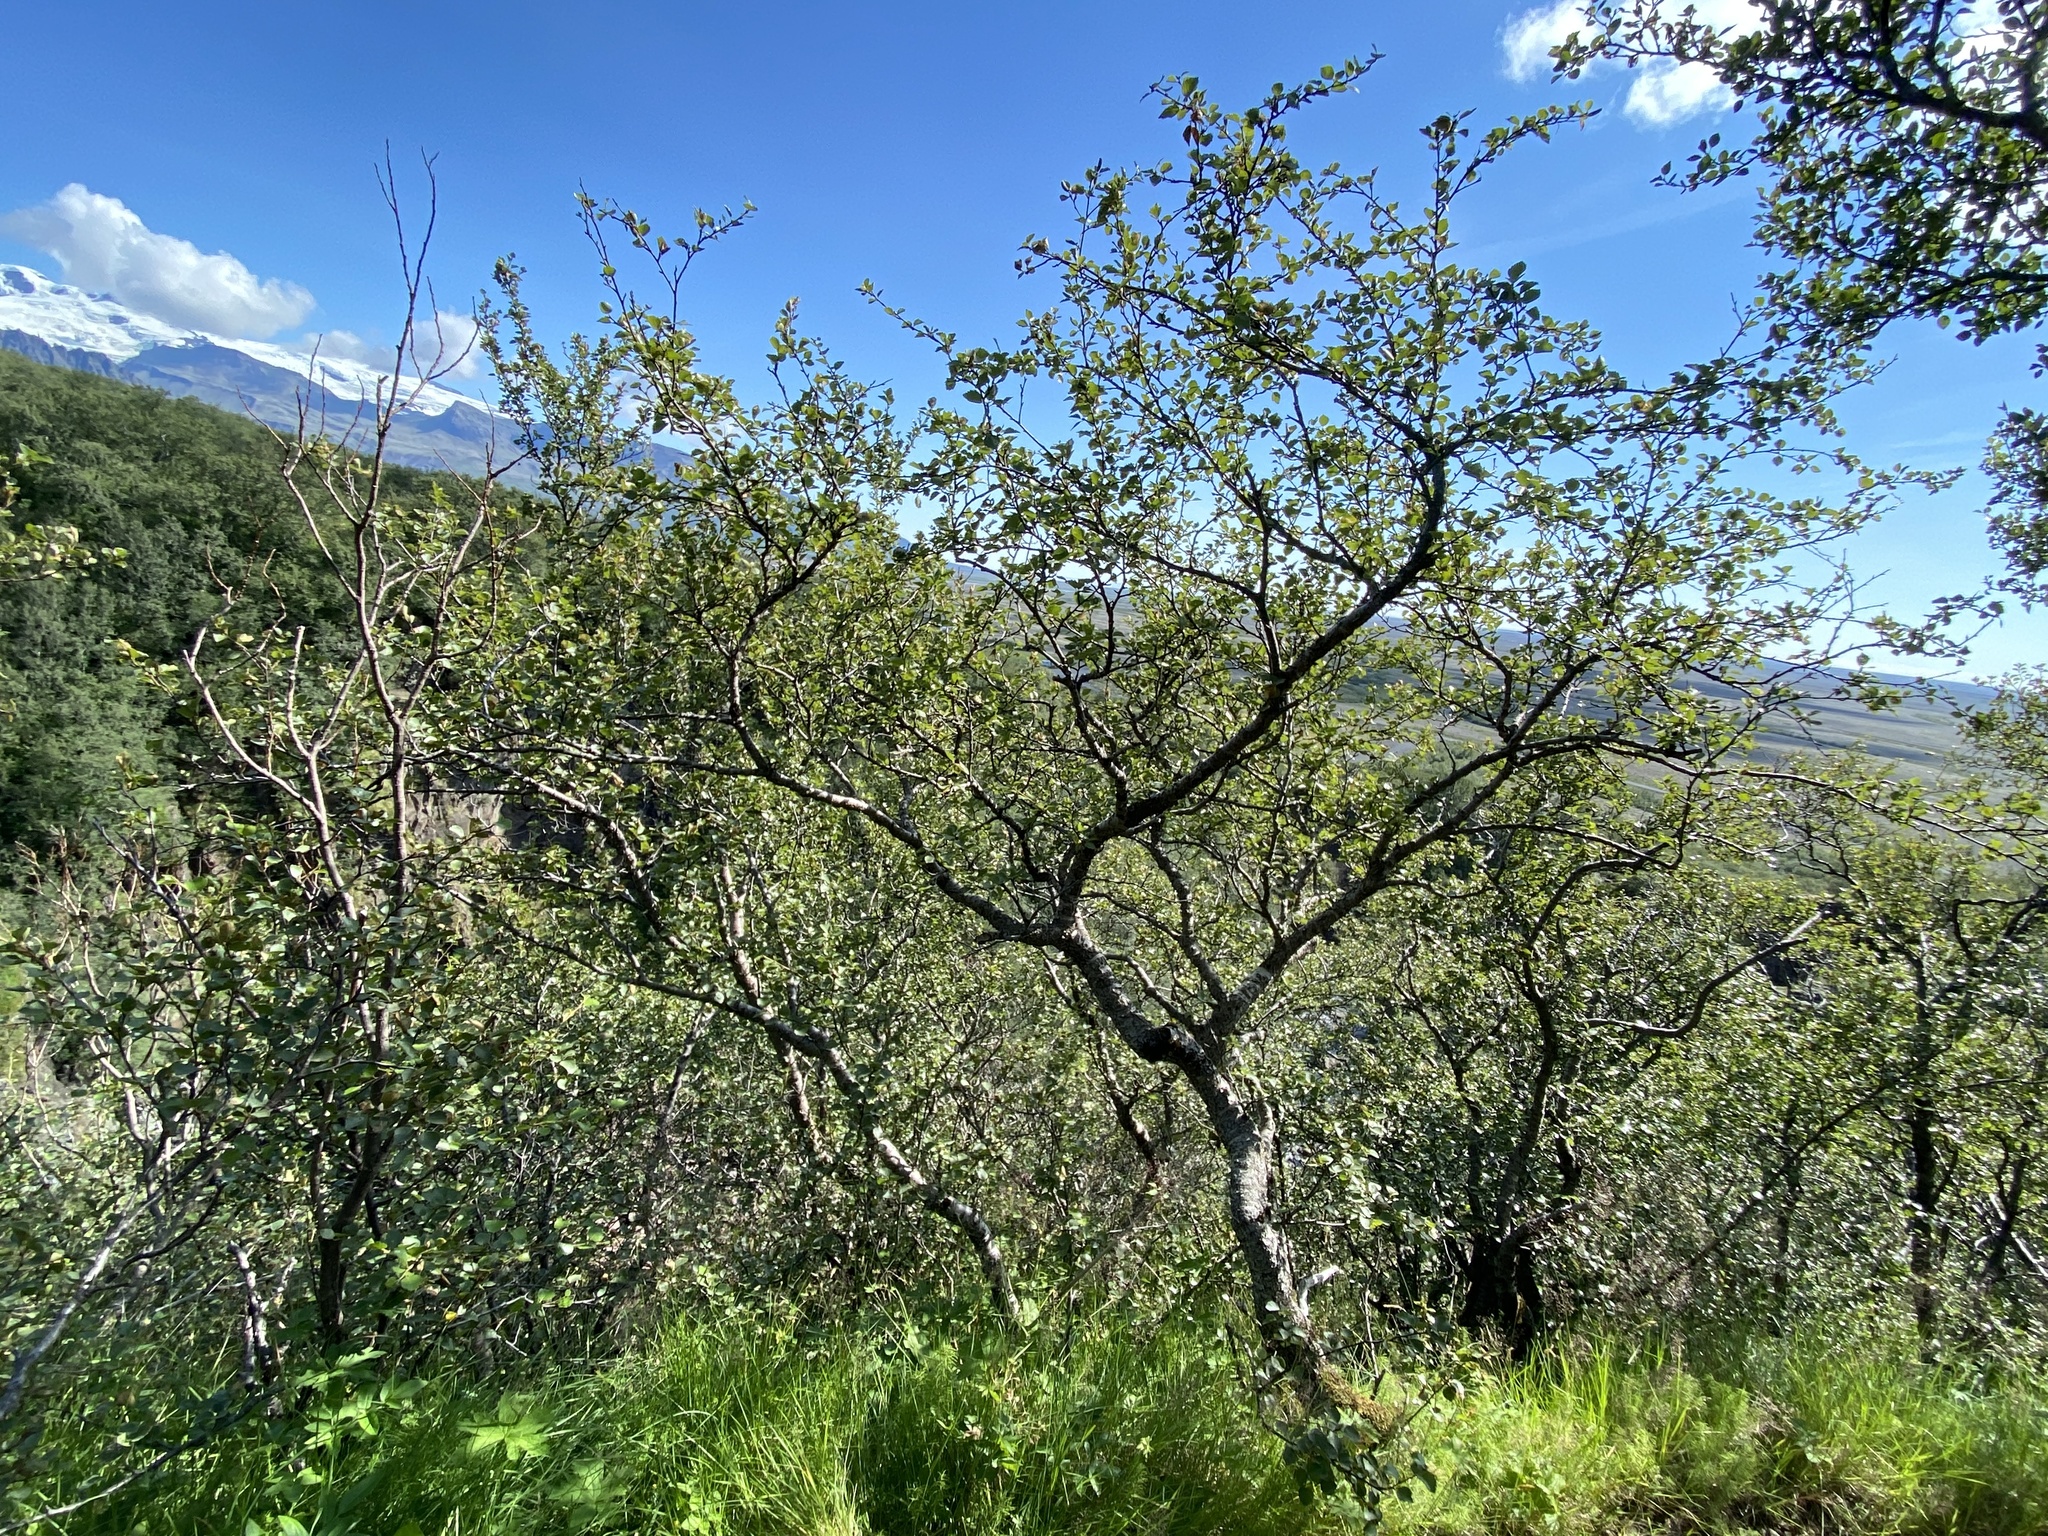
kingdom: Plantae
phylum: Tracheophyta
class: Magnoliopsida
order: Fagales
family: Betulaceae
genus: Betula
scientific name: Betula pubescens
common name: Downy birch
